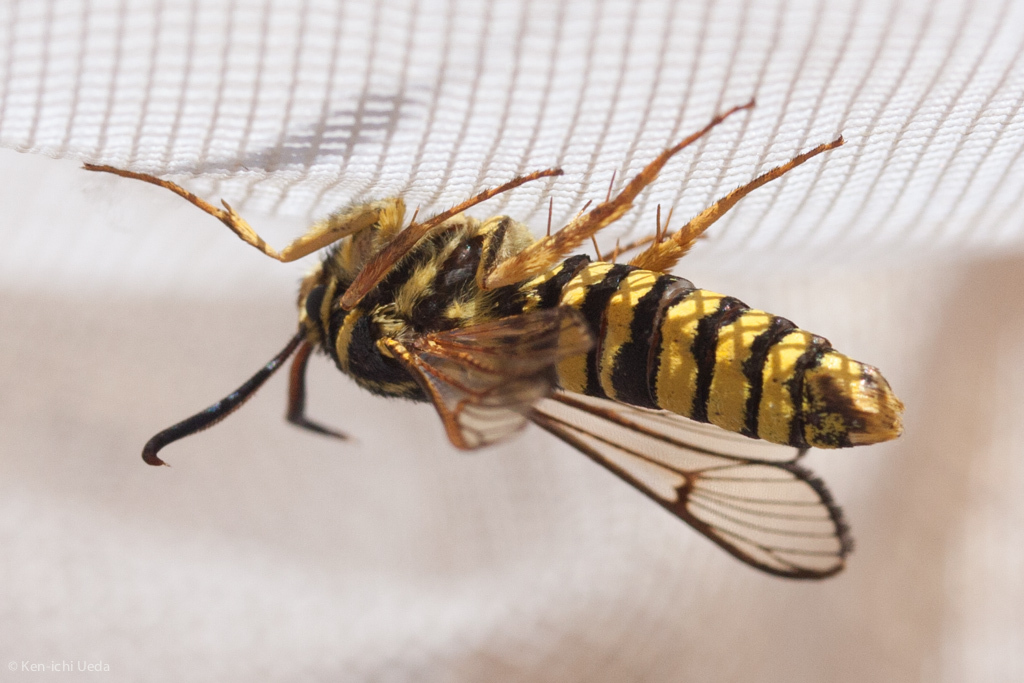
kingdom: Animalia
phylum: Arthropoda
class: Insecta
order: Lepidoptera
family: Sesiidae
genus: Sesia
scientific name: Sesia tibiale
